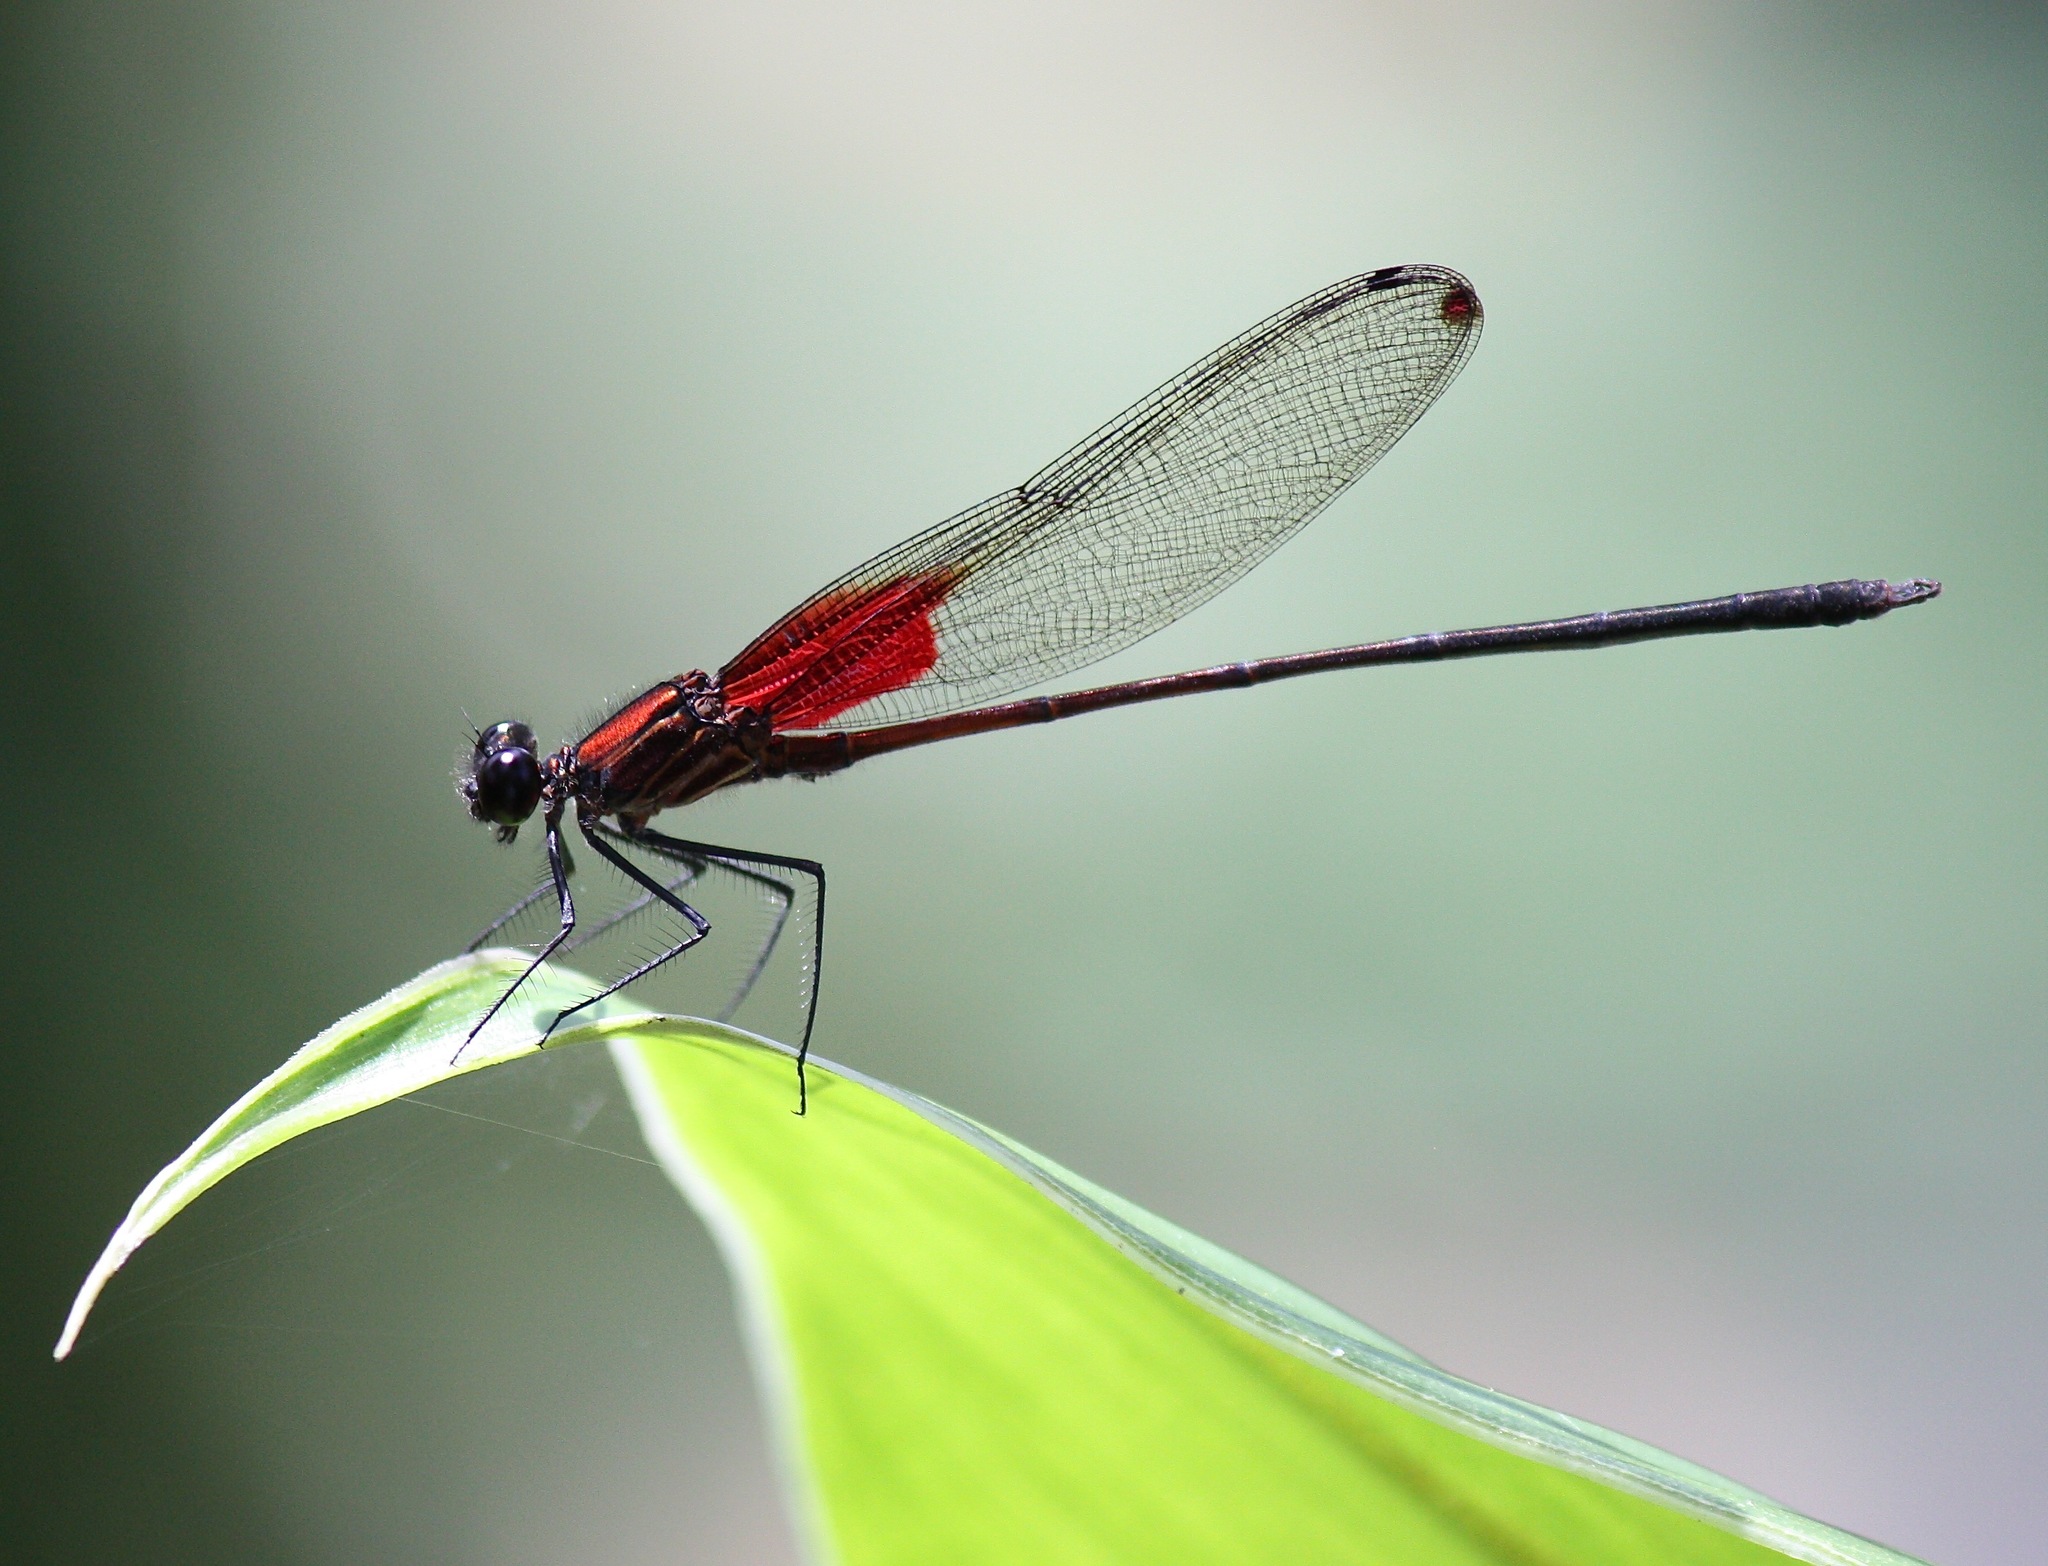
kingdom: Animalia
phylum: Arthropoda
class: Insecta
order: Odonata
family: Calopterygidae
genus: Hetaerina
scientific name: Hetaerina occisa
